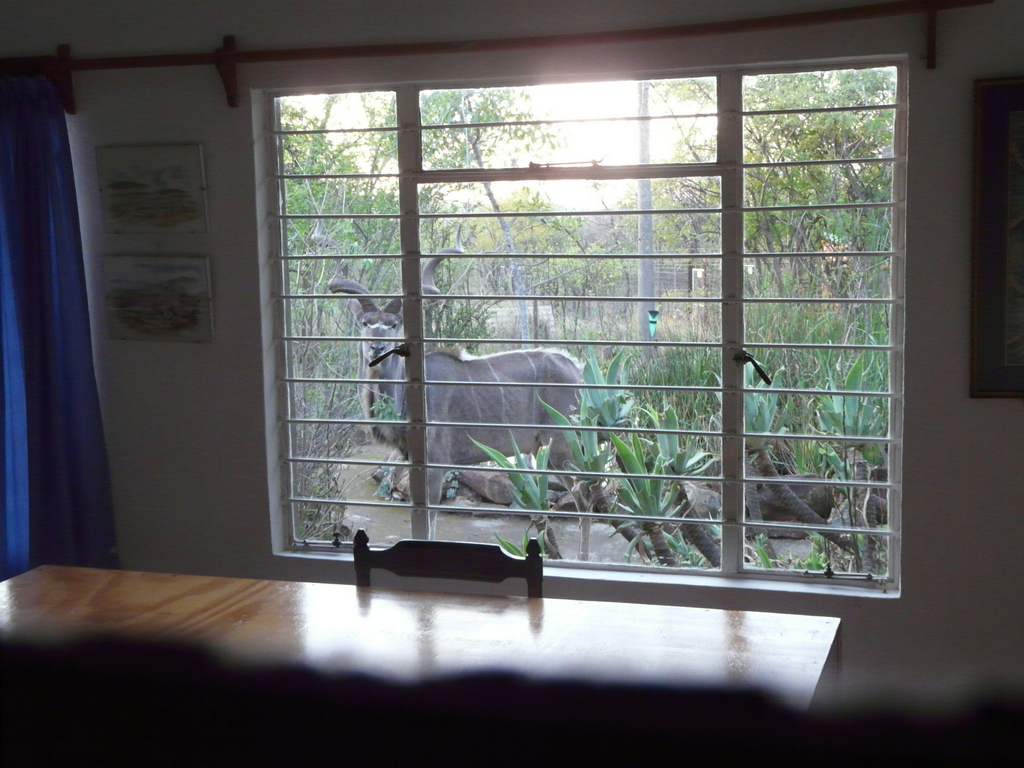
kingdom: Animalia
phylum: Chordata
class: Mammalia
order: Artiodactyla
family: Bovidae
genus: Tragelaphus
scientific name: Tragelaphus strepsiceros
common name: Greater kudu
